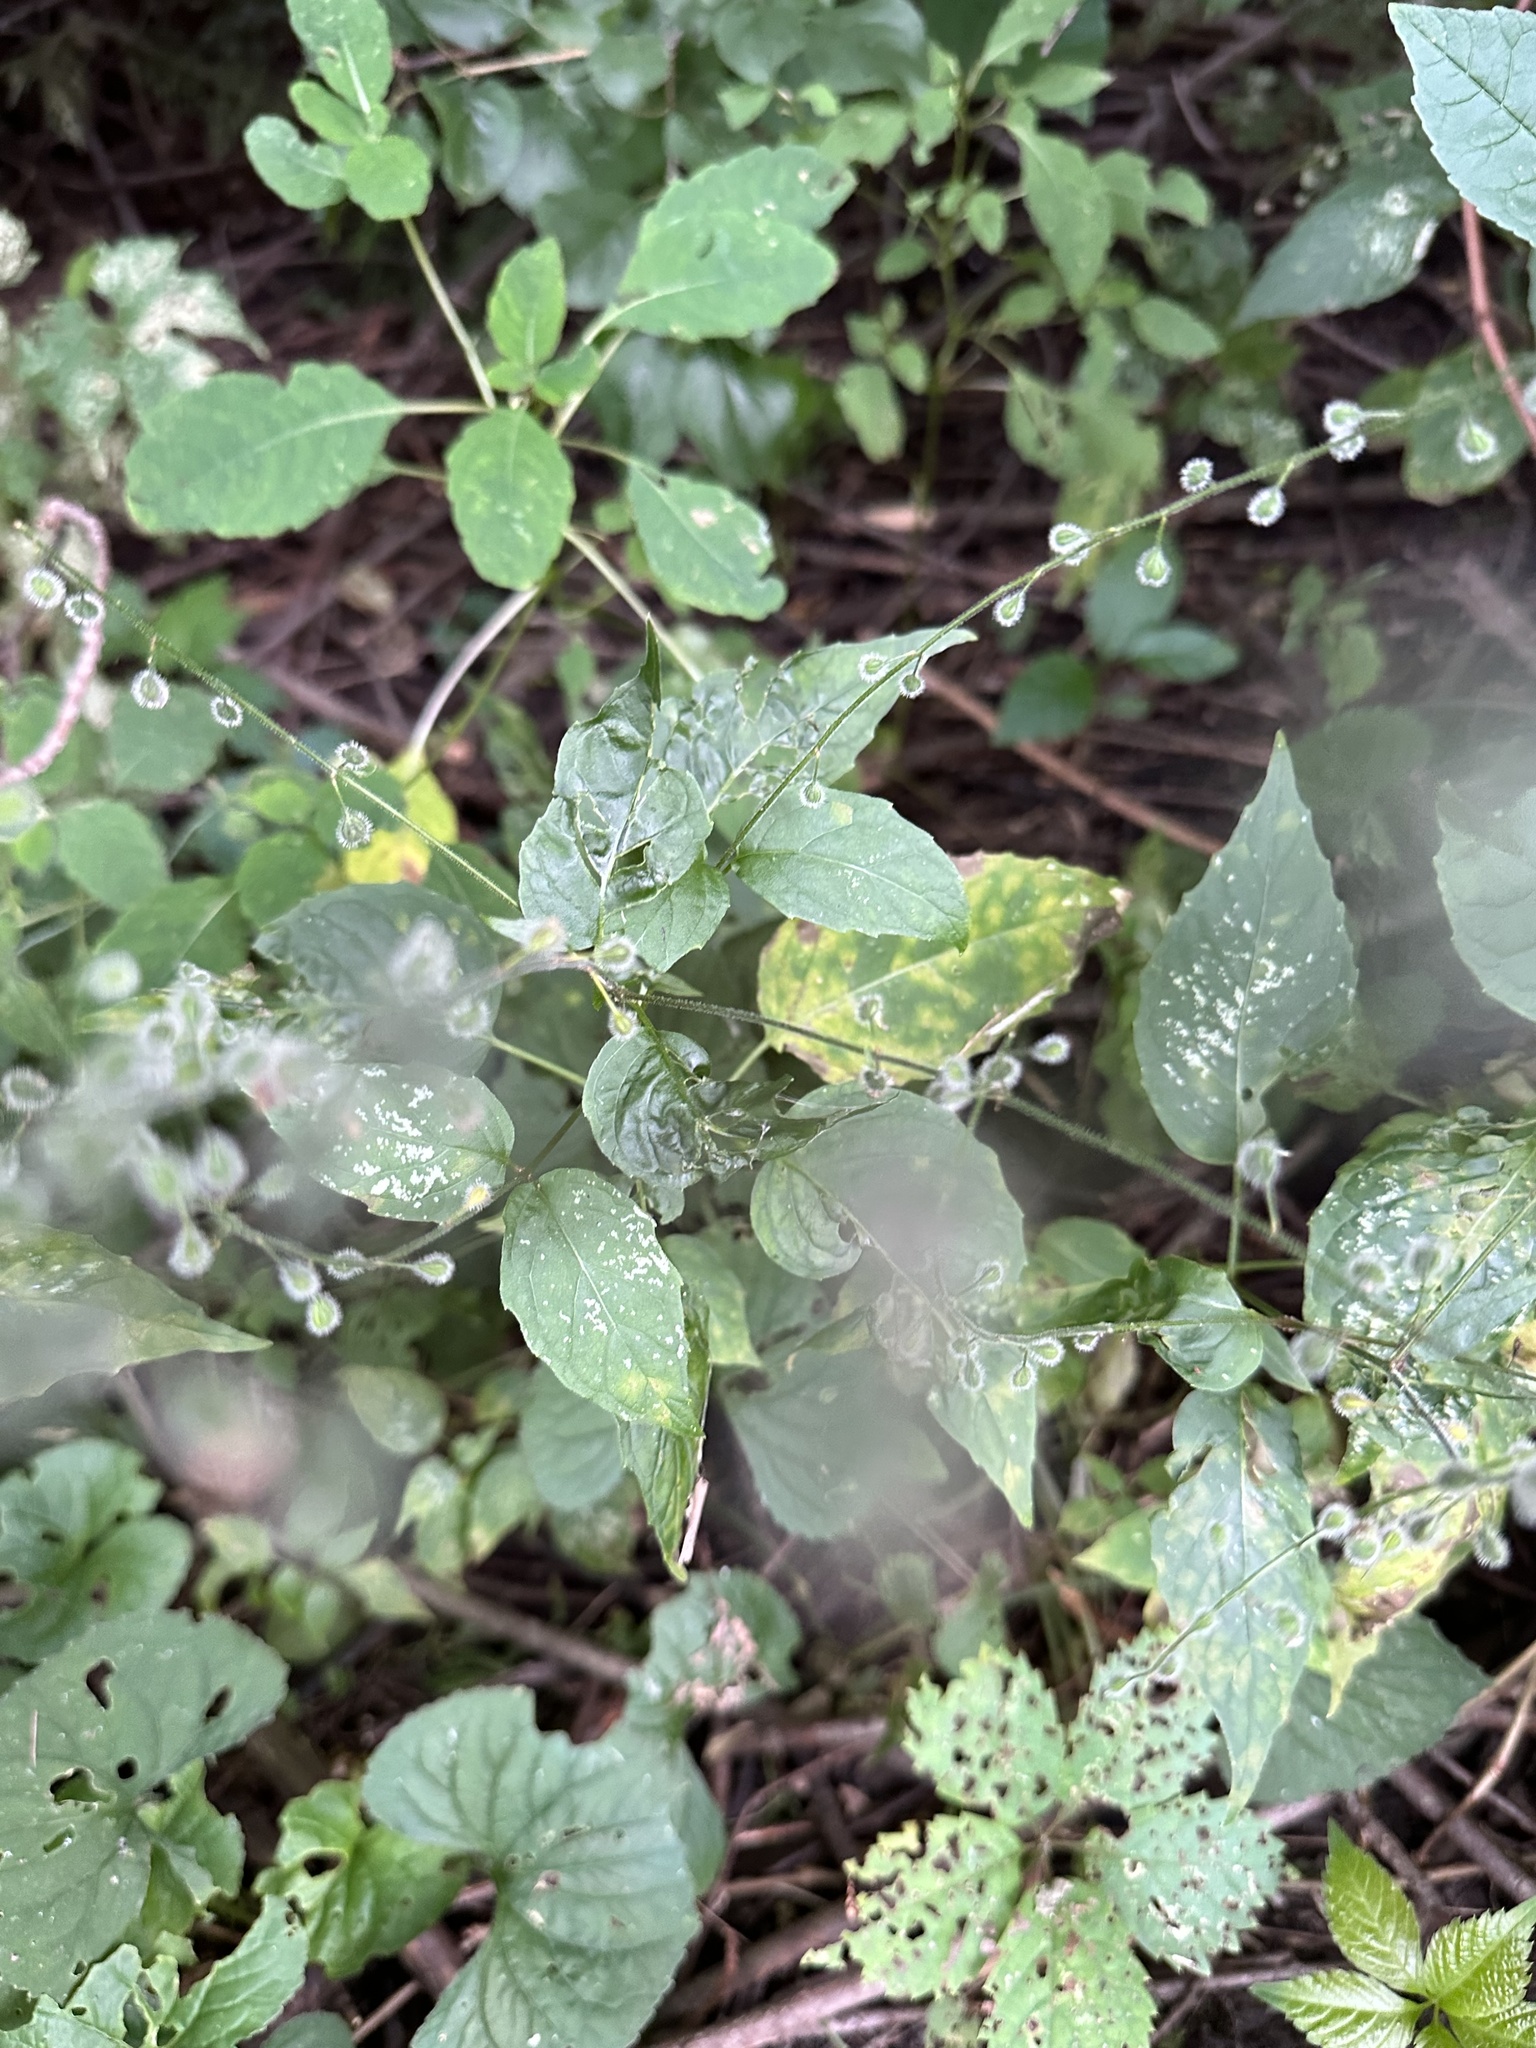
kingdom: Plantae
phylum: Tracheophyta
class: Magnoliopsida
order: Myrtales
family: Onagraceae
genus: Circaea
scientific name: Circaea canadensis
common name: Broad-leaved enchanter's nightshade
